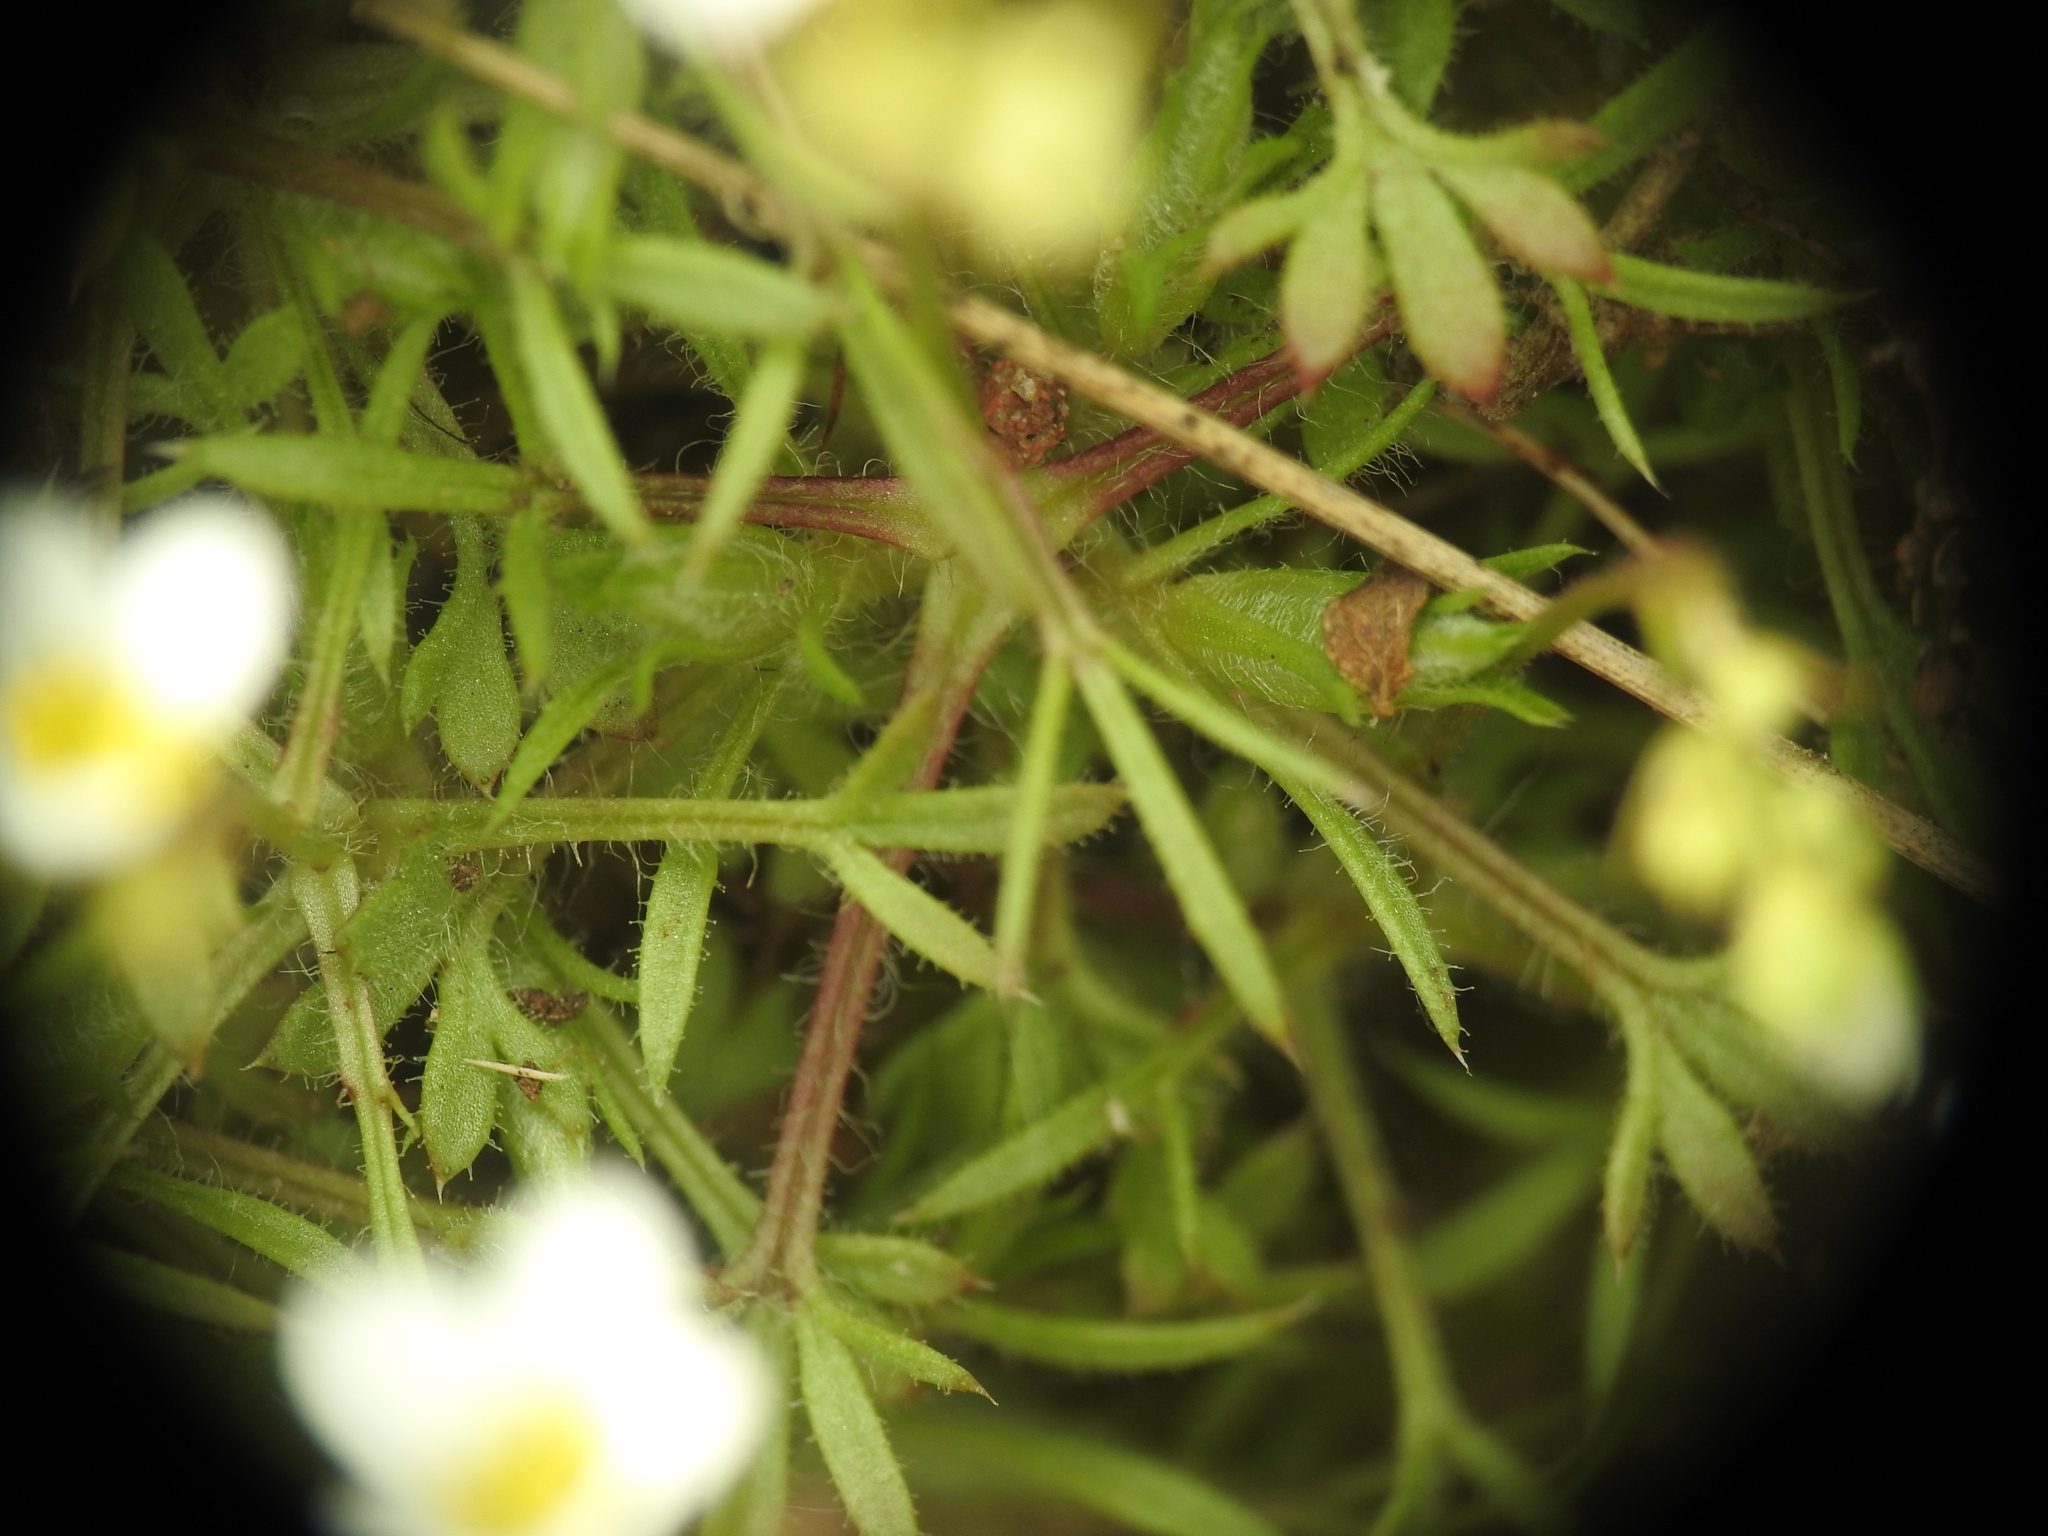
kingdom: Plantae
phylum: Tracheophyta
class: Magnoliopsida
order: Saxifragales
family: Saxifragaceae
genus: Saxifraga
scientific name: Saxifraga fragosoi
